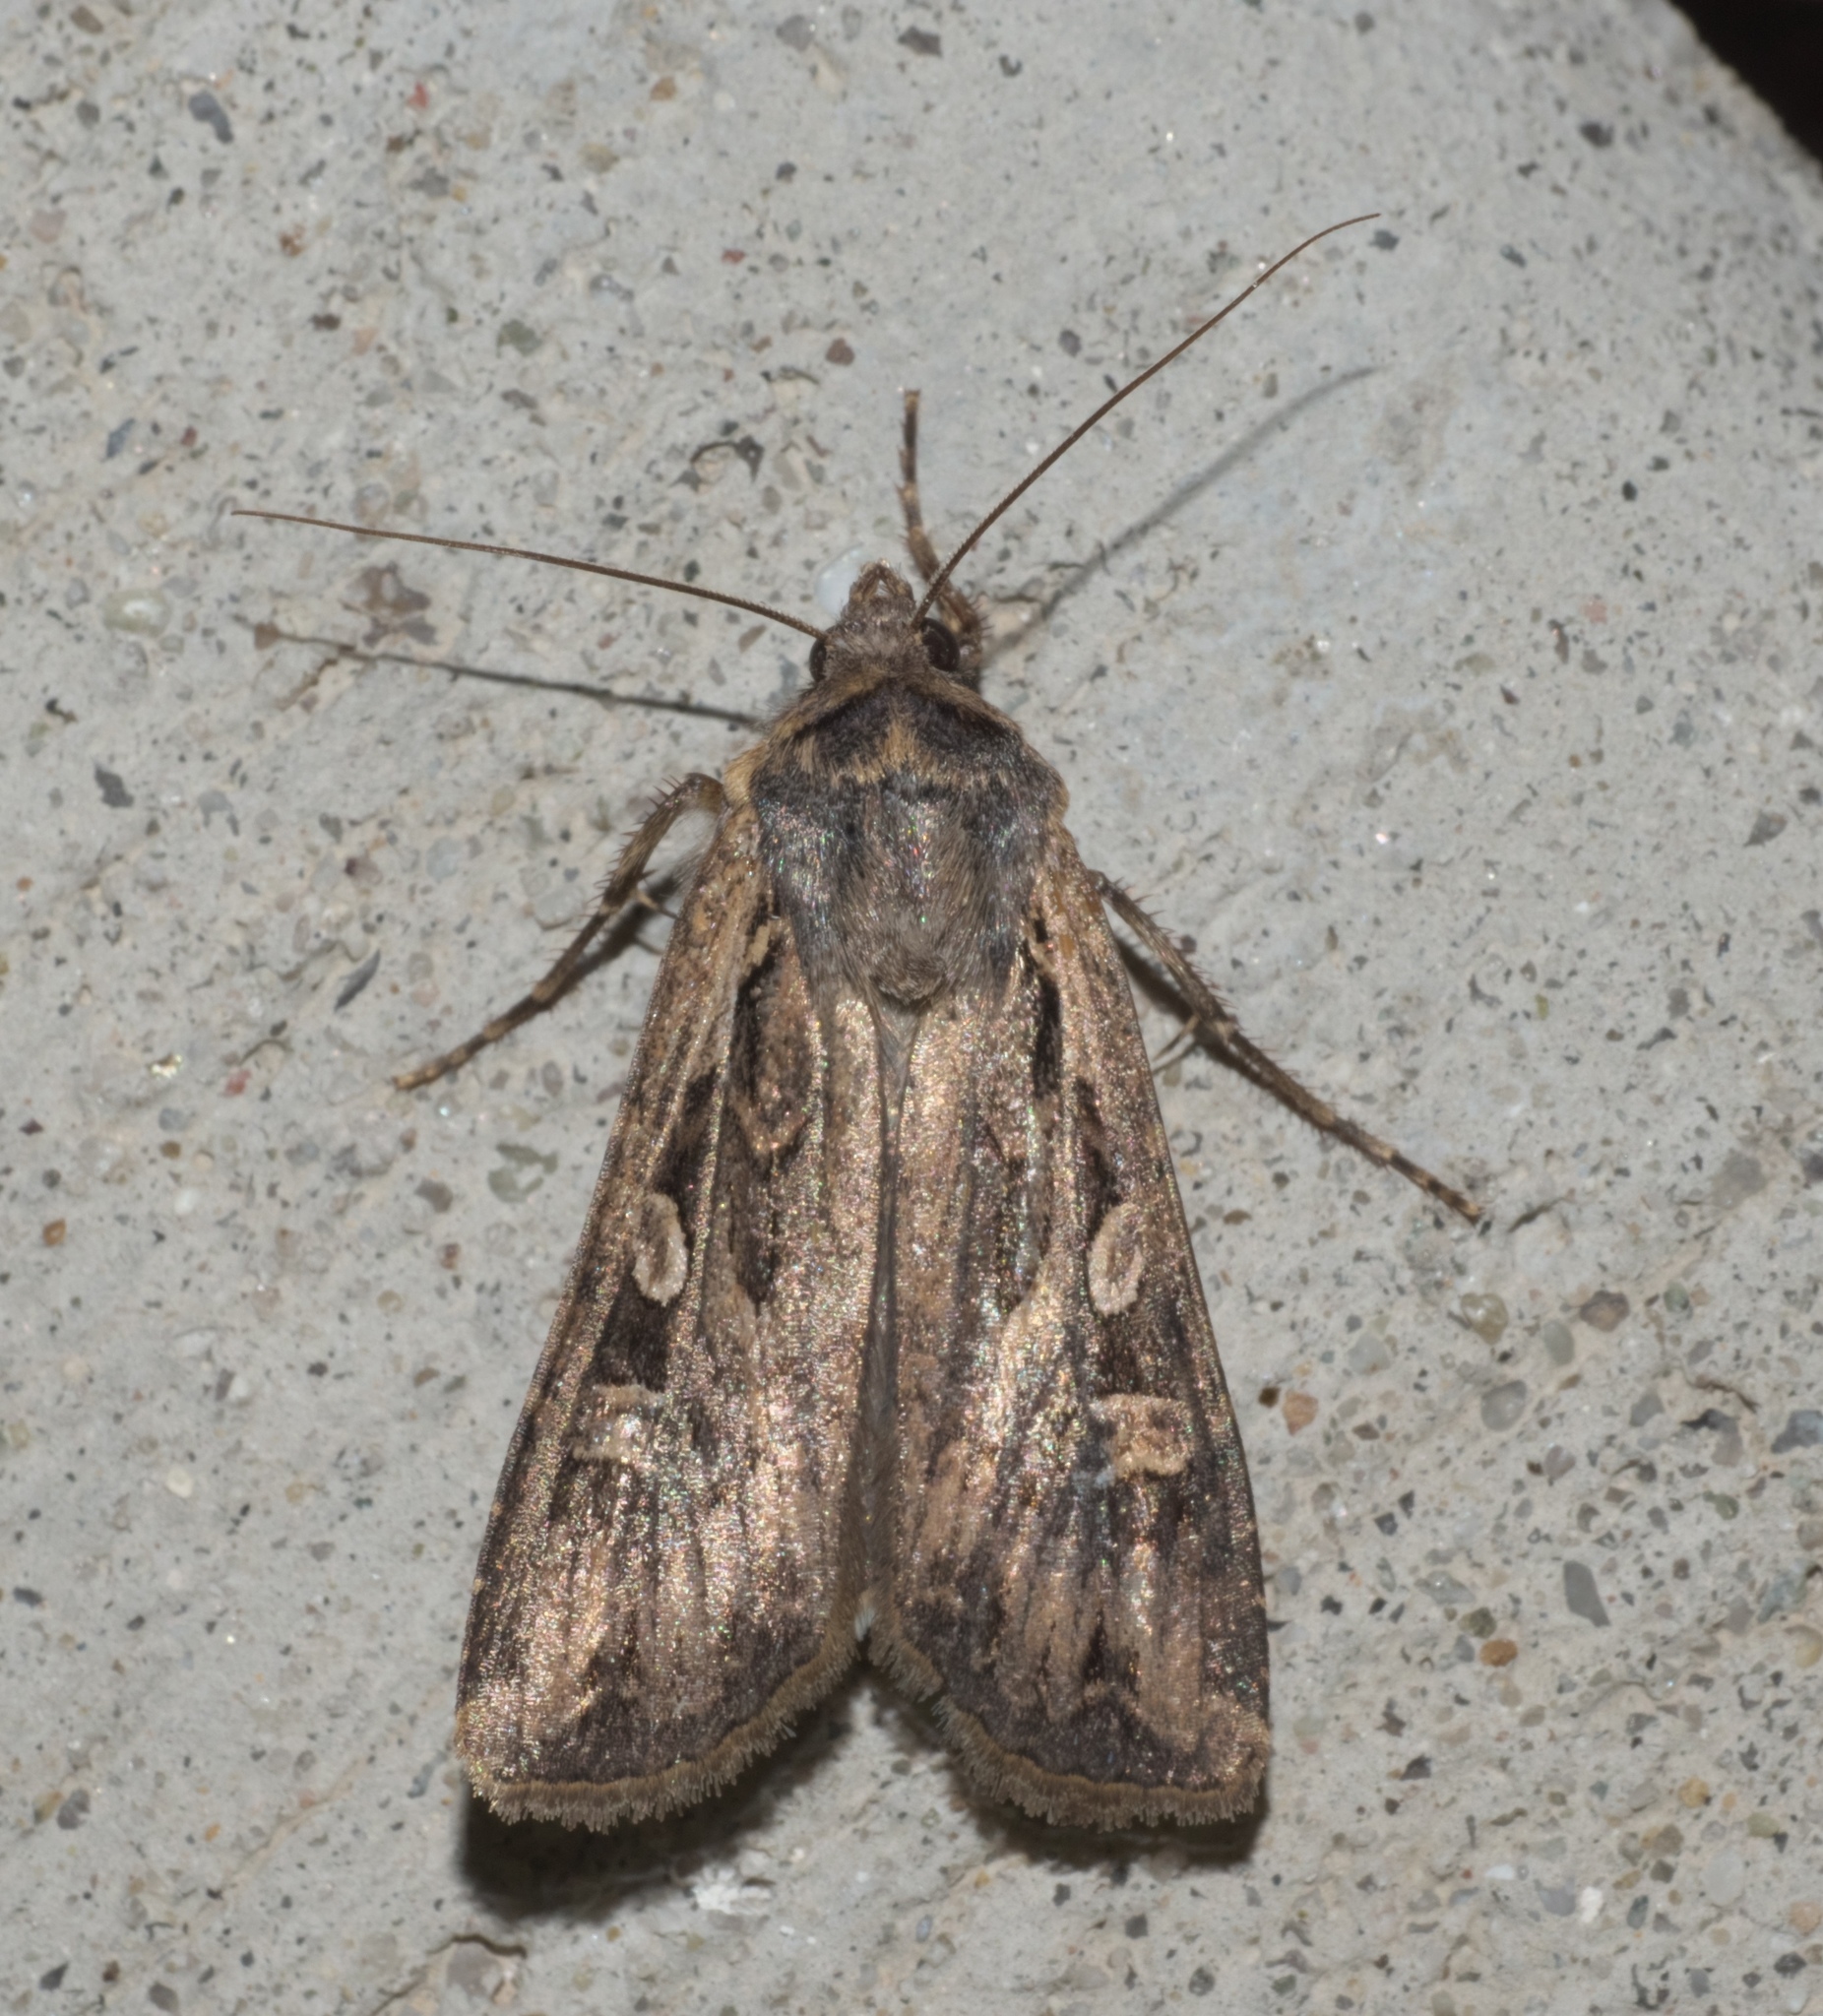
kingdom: Animalia
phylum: Arthropoda
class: Insecta
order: Lepidoptera
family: Noctuidae
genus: Euxoa
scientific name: Euxoa auxiliaris
